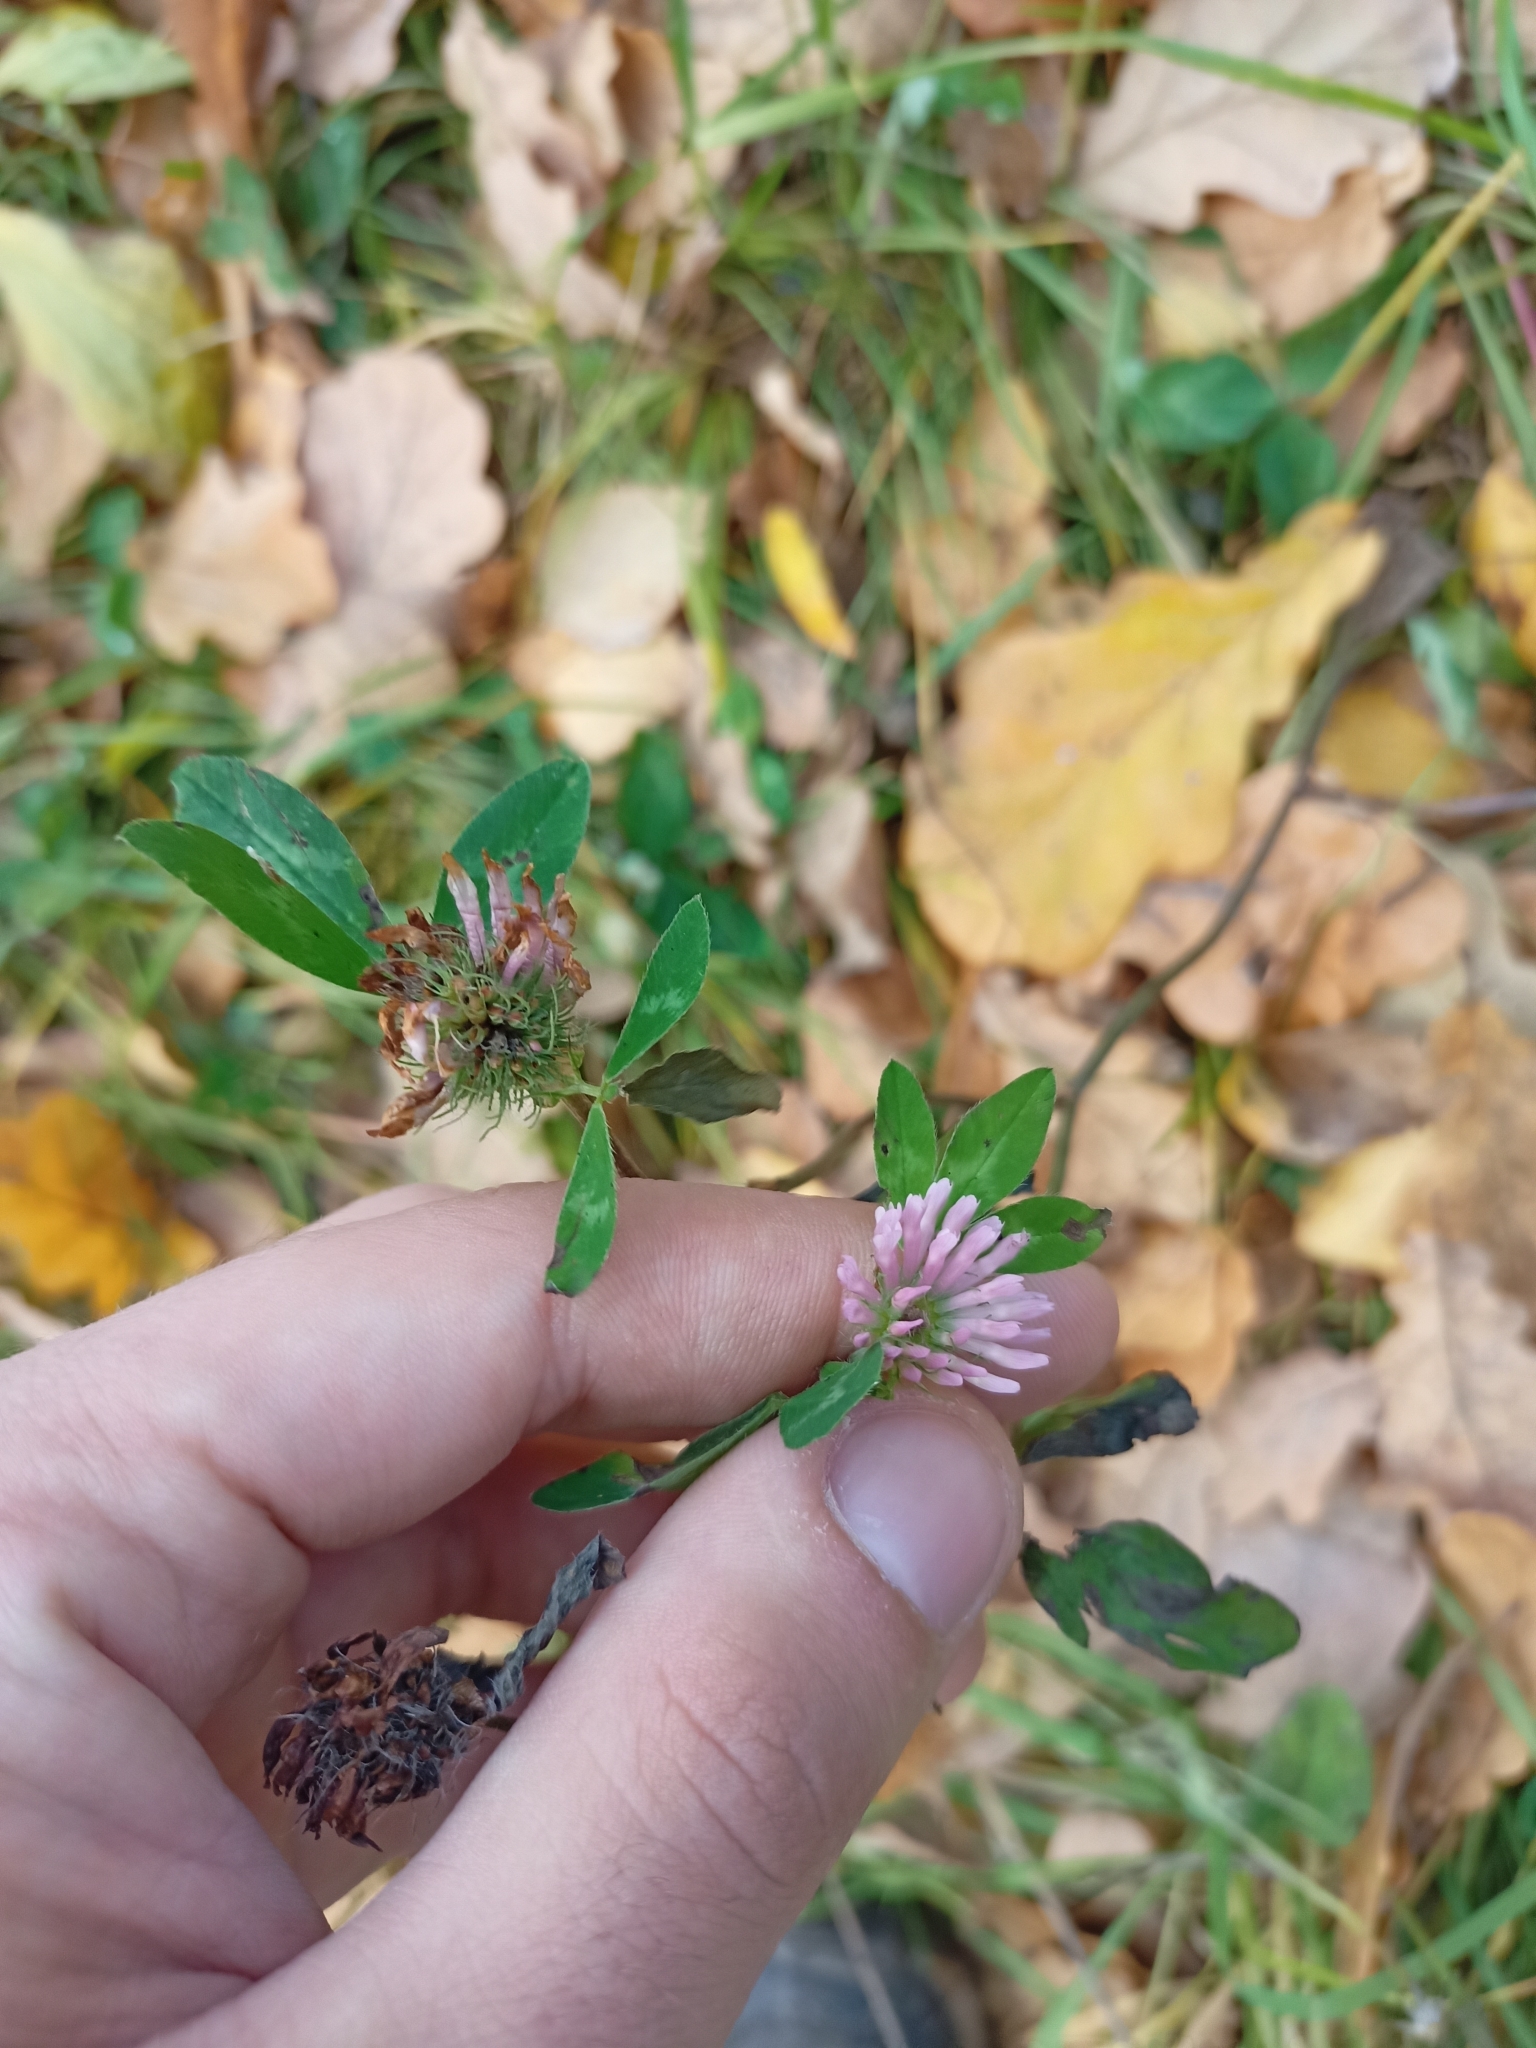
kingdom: Plantae
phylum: Tracheophyta
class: Magnoliopsida
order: Fabales
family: Fabaceae
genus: Trifolium
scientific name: Trifolium pratense
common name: Red clover
